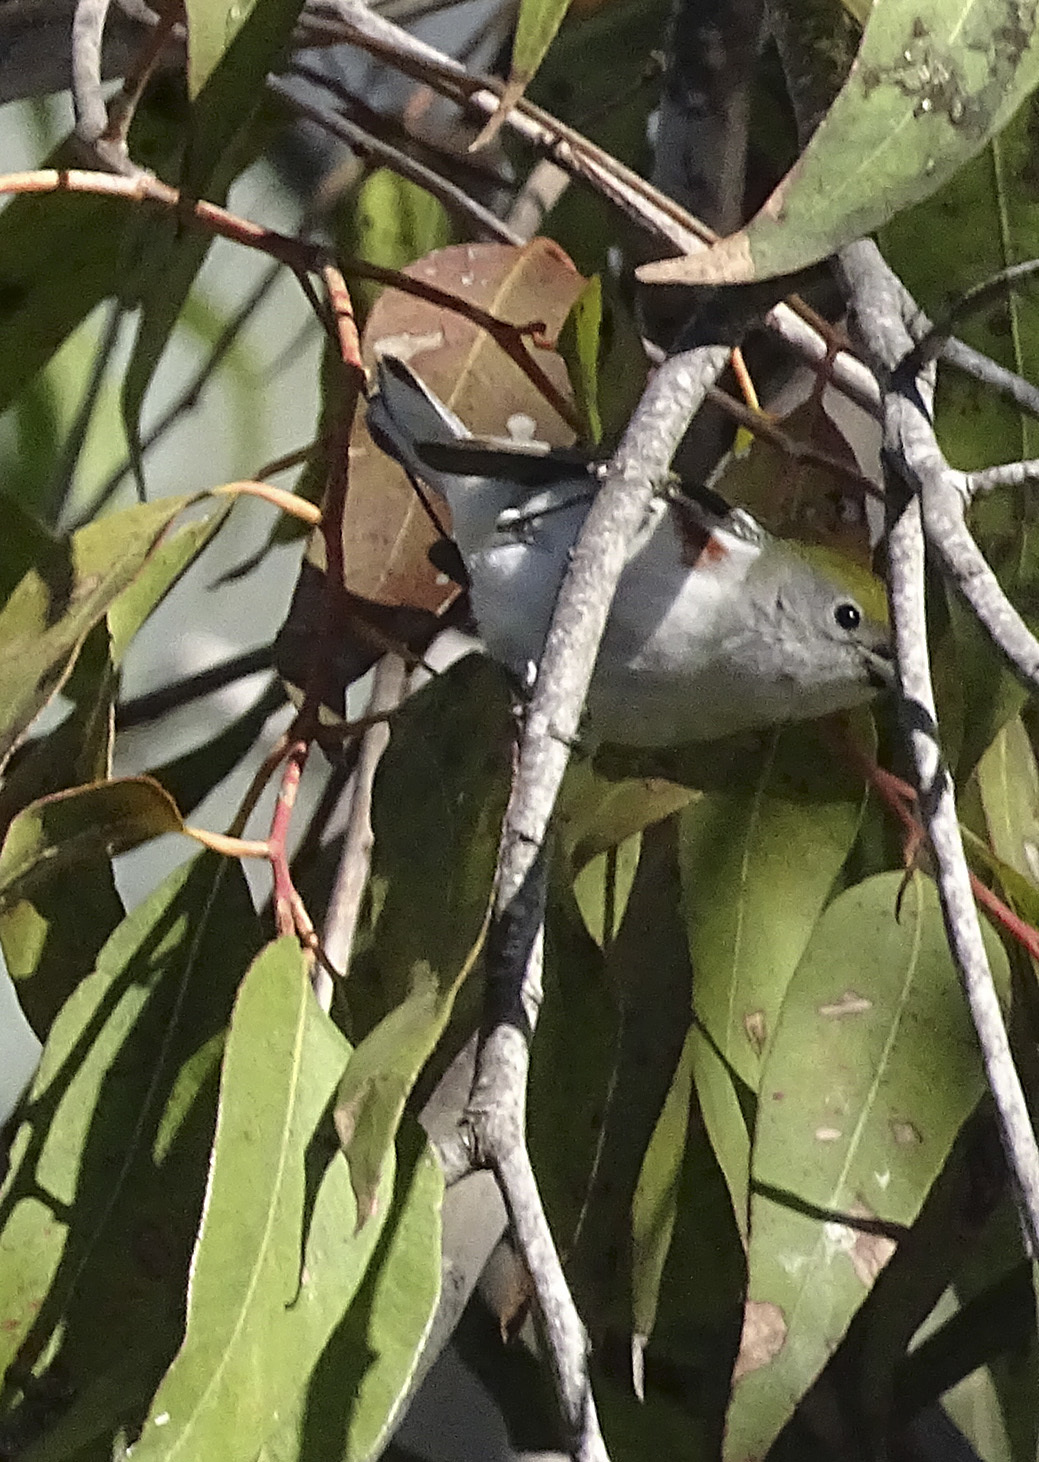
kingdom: Animalia
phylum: Chordata
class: Aves
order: Passeriformes
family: Parulidae
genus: Setophaga
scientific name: Setophaga pensylvanica
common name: Chestnut-sided warbler
